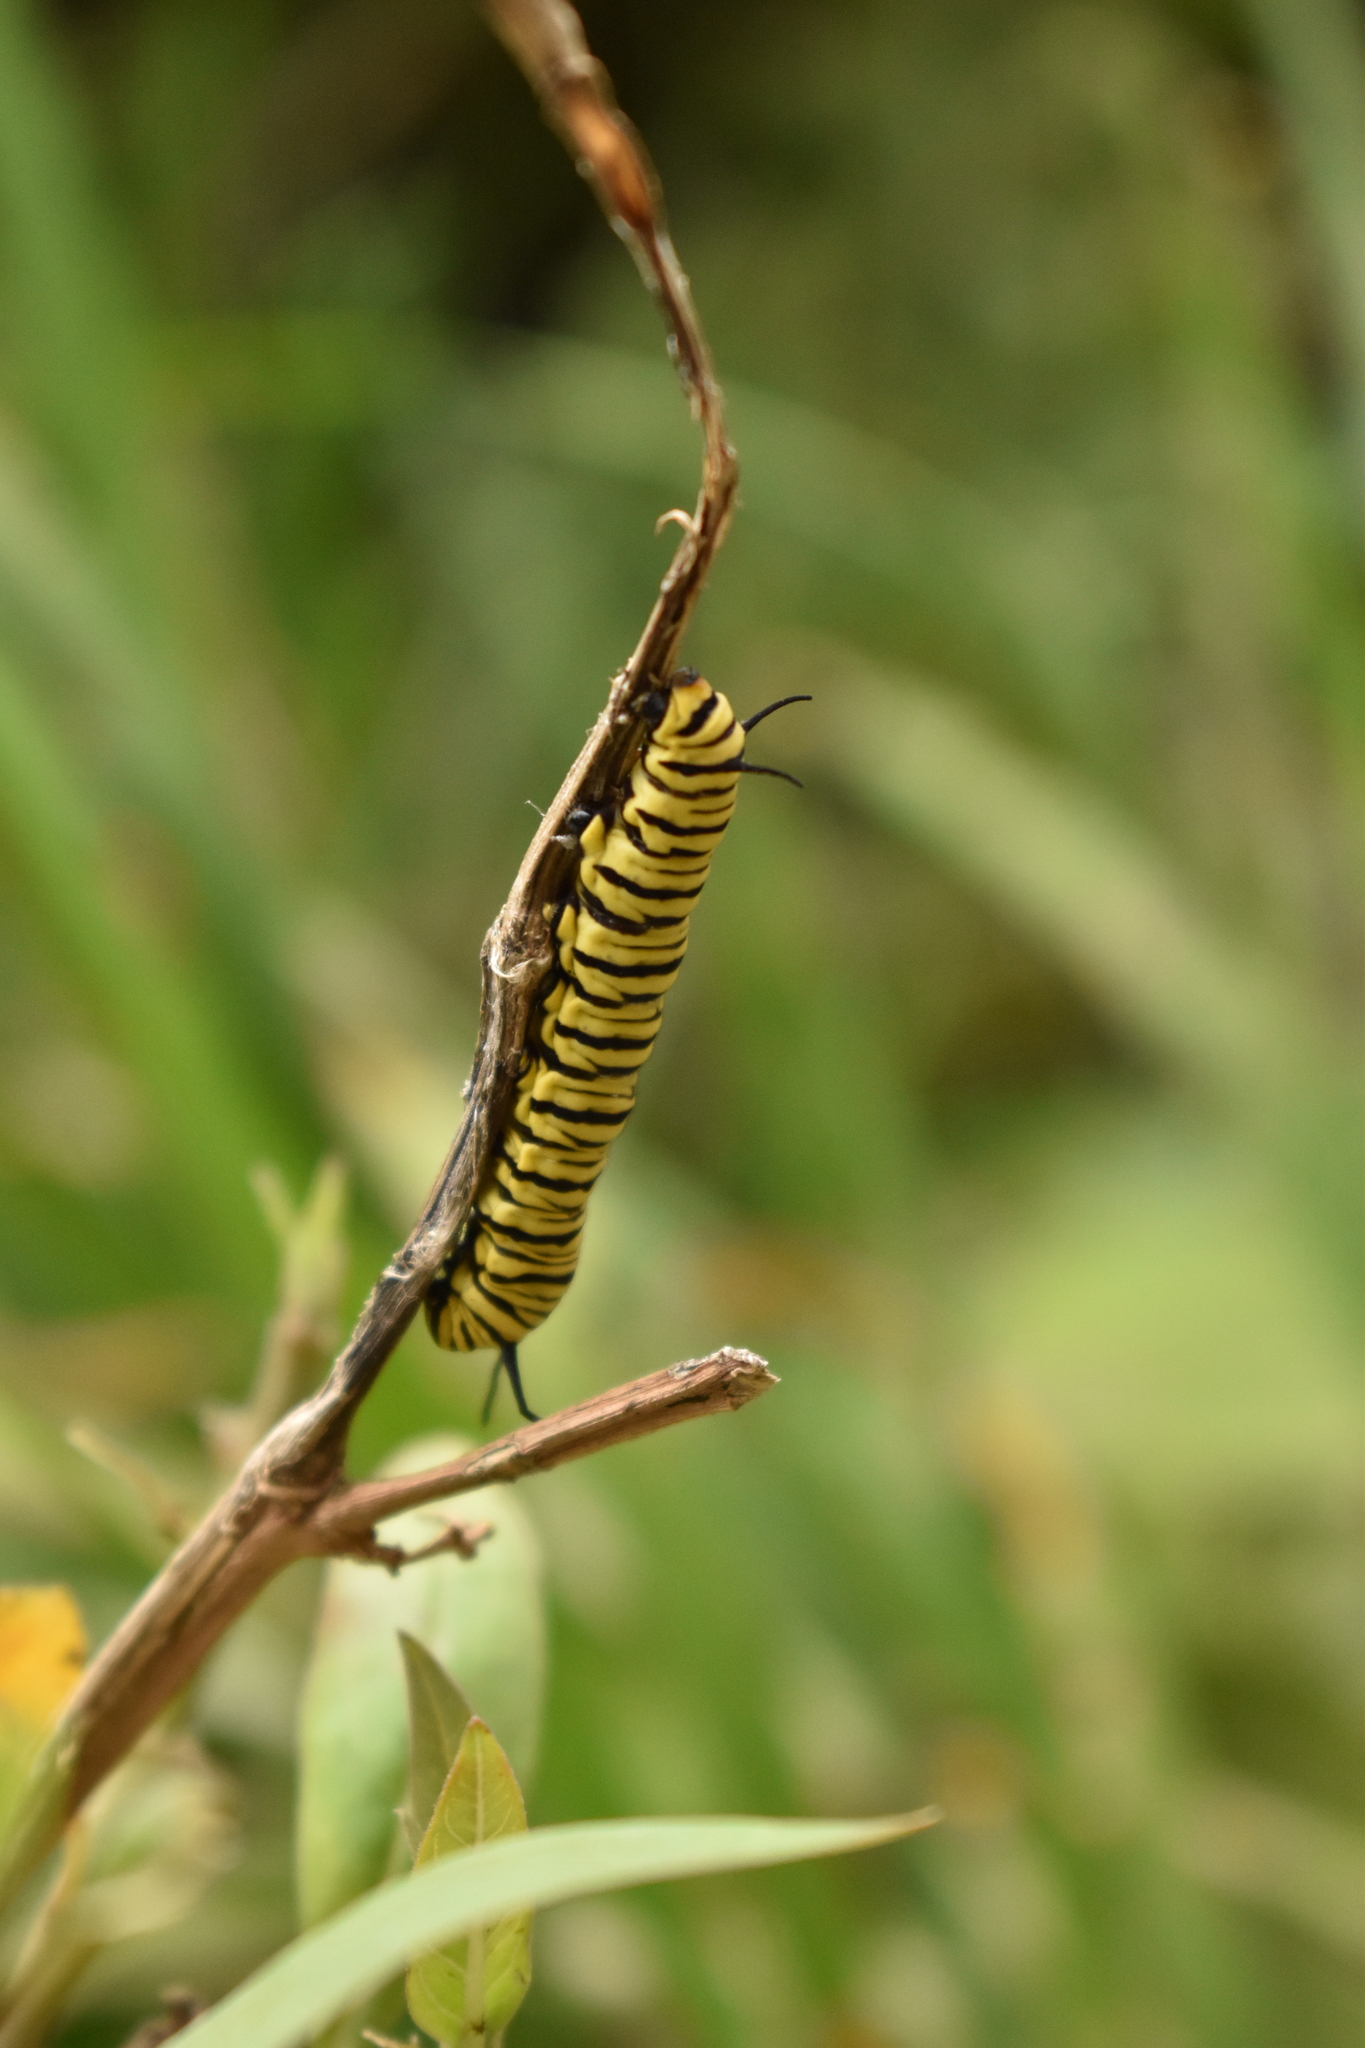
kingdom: Animalia
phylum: Arthropoda
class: Insecta
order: Lepidoptera
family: Nymphalidae
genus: Danaus
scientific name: Danaus erippus
